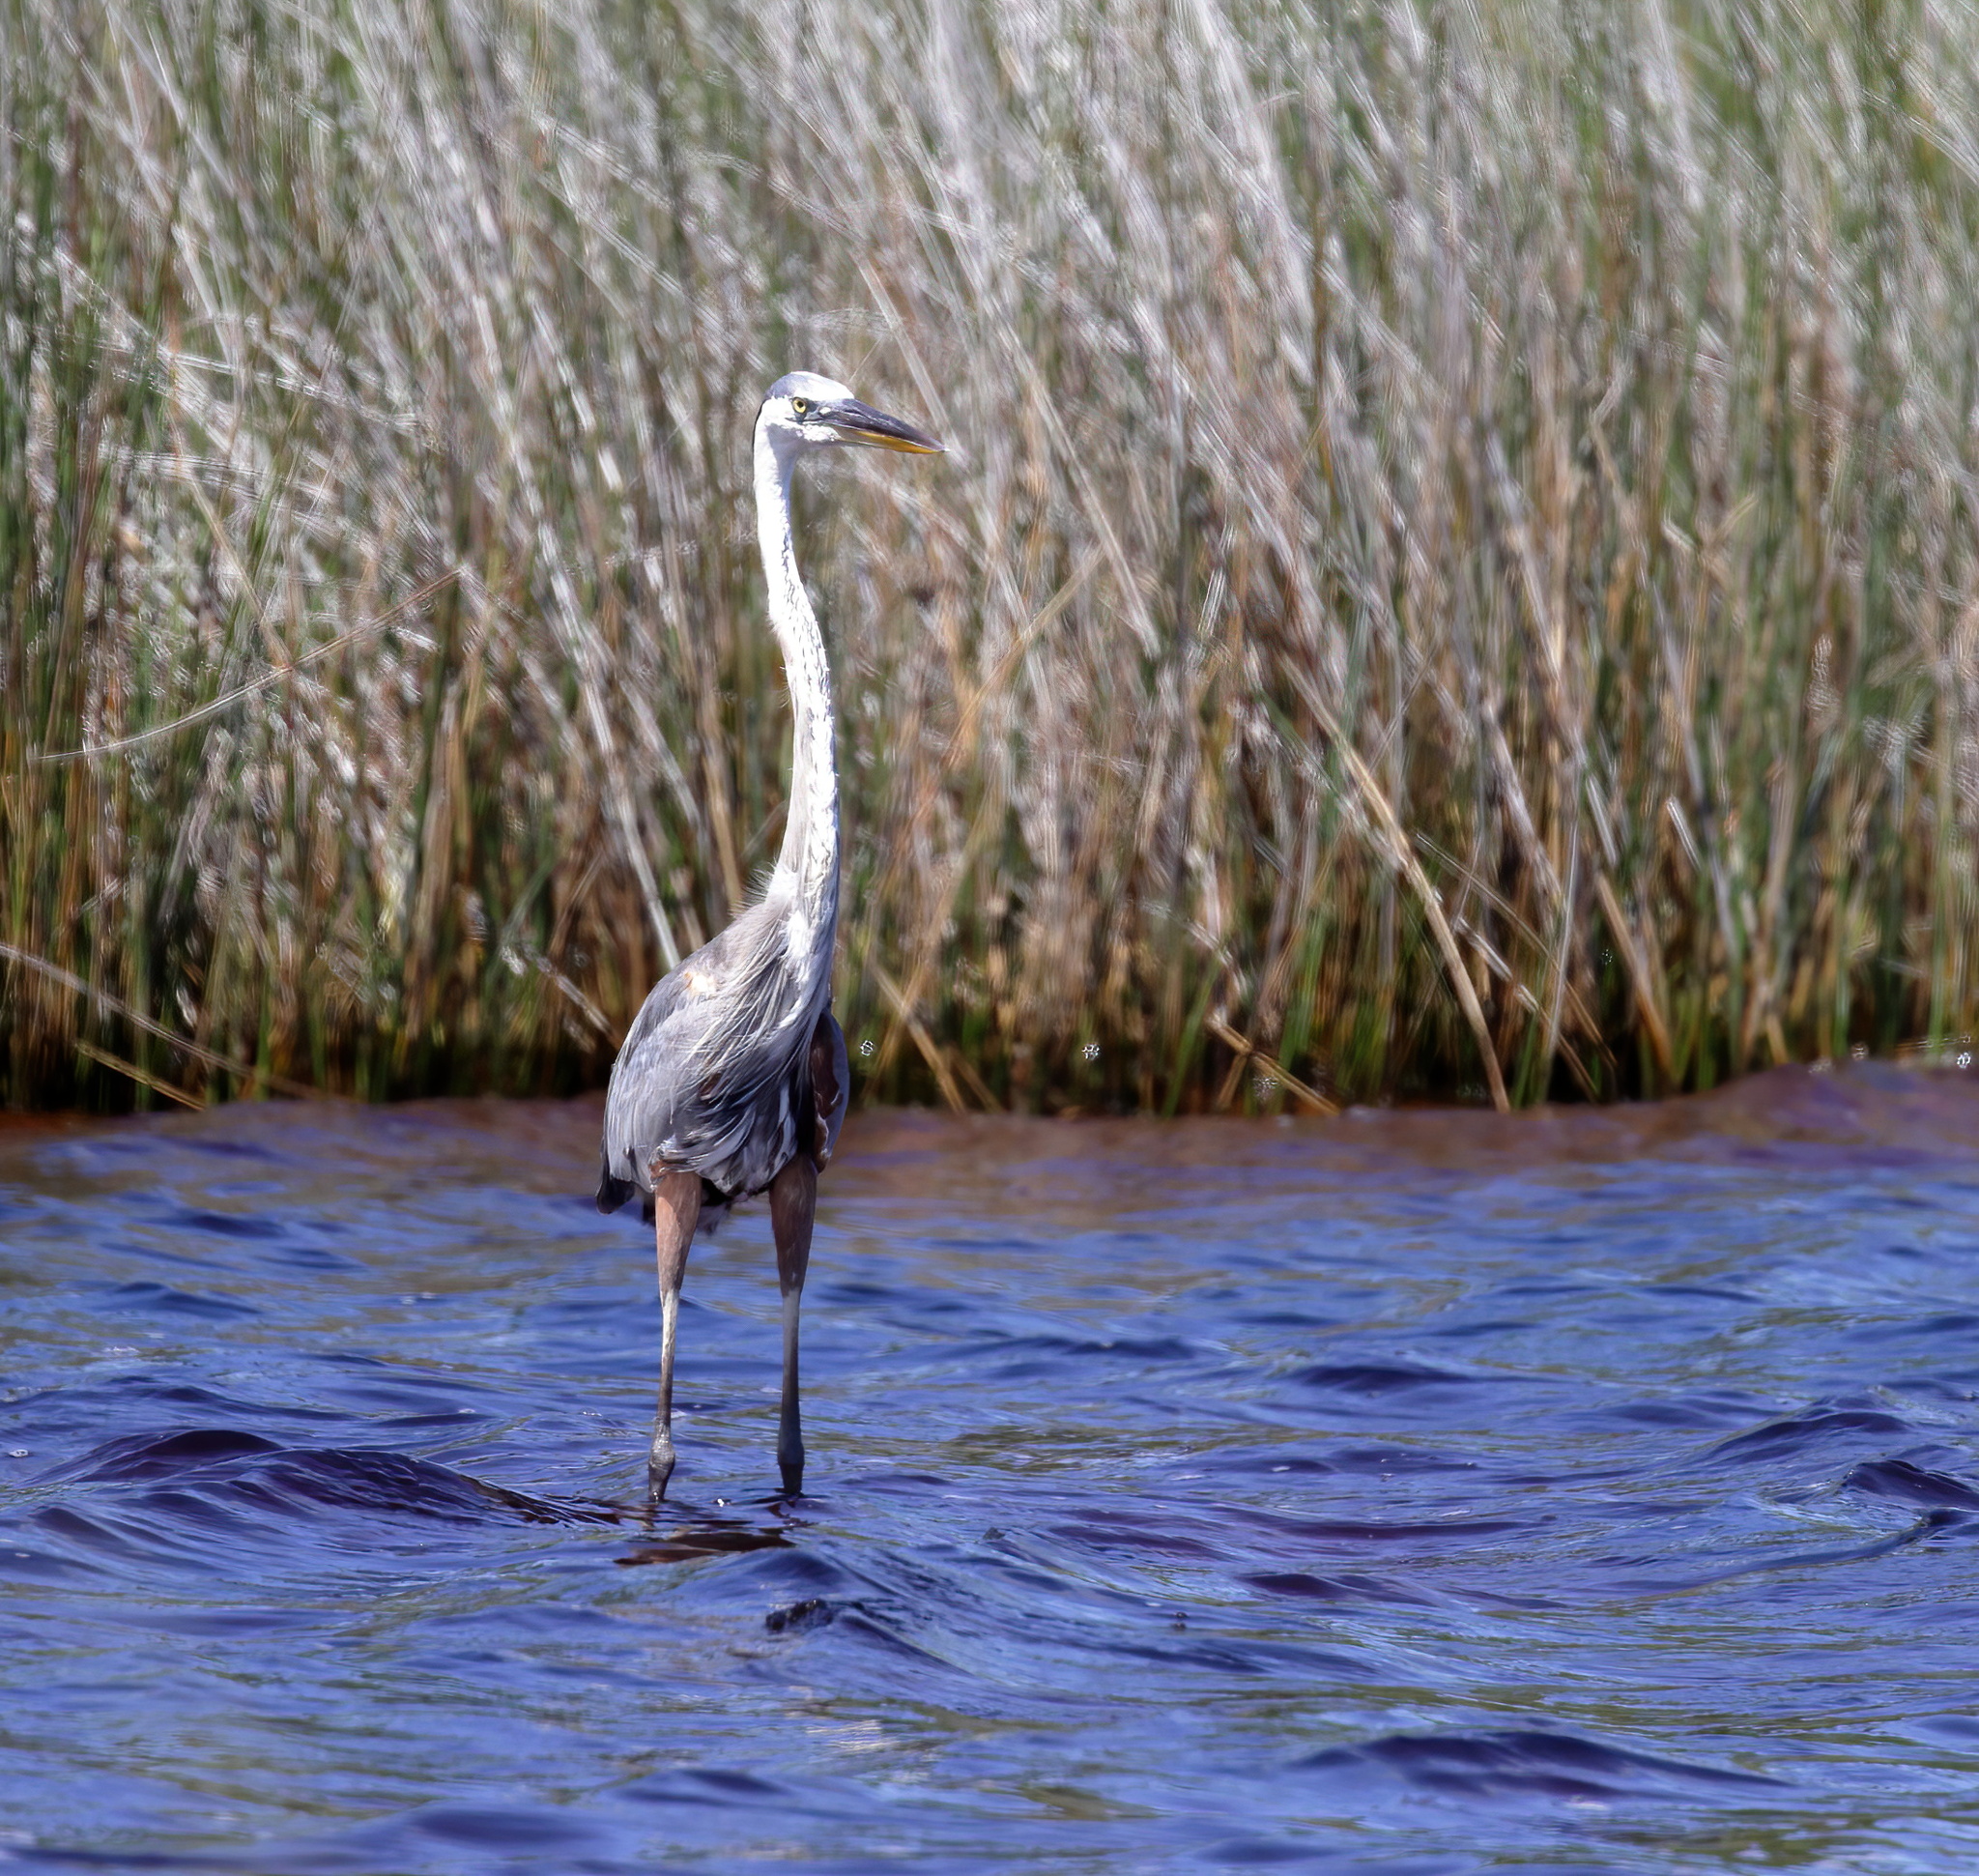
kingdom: Animalia
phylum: Chordata
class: Aves
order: Pelecaniformes
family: Ardeidae
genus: Ardea
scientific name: Ardea herodias
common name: Great blue heron
